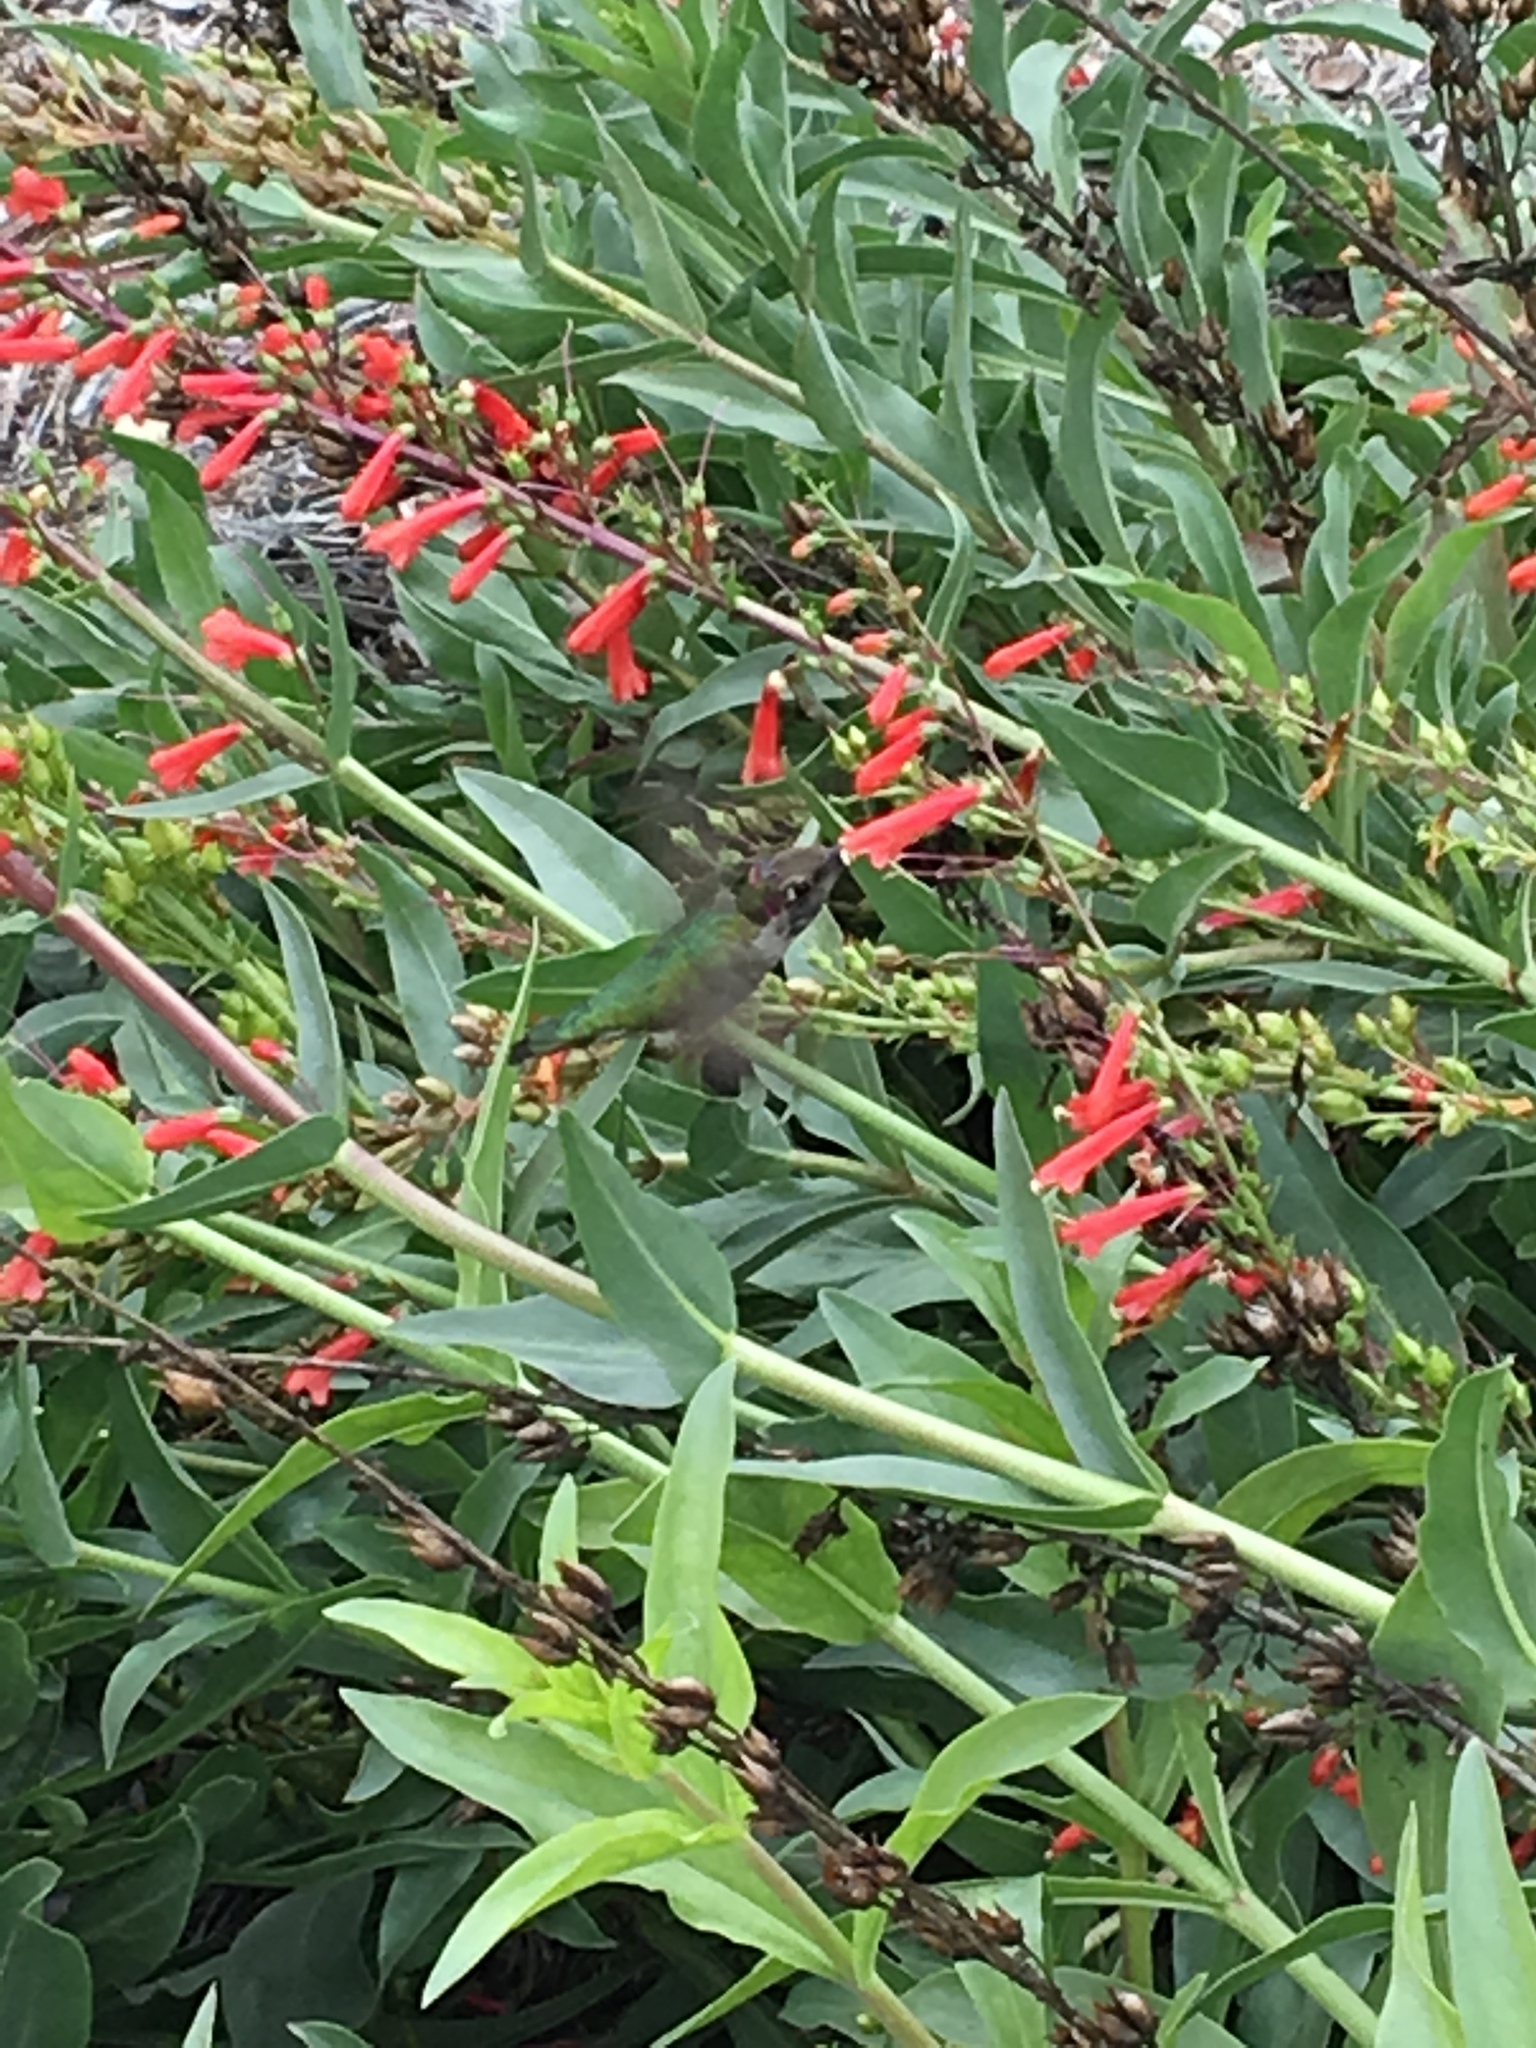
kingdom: Animalia
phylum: Chordata
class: Aves
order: Apodiformes
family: Trochilidae
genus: Calypte
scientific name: Calypte anna
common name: Anna's hummingbird
